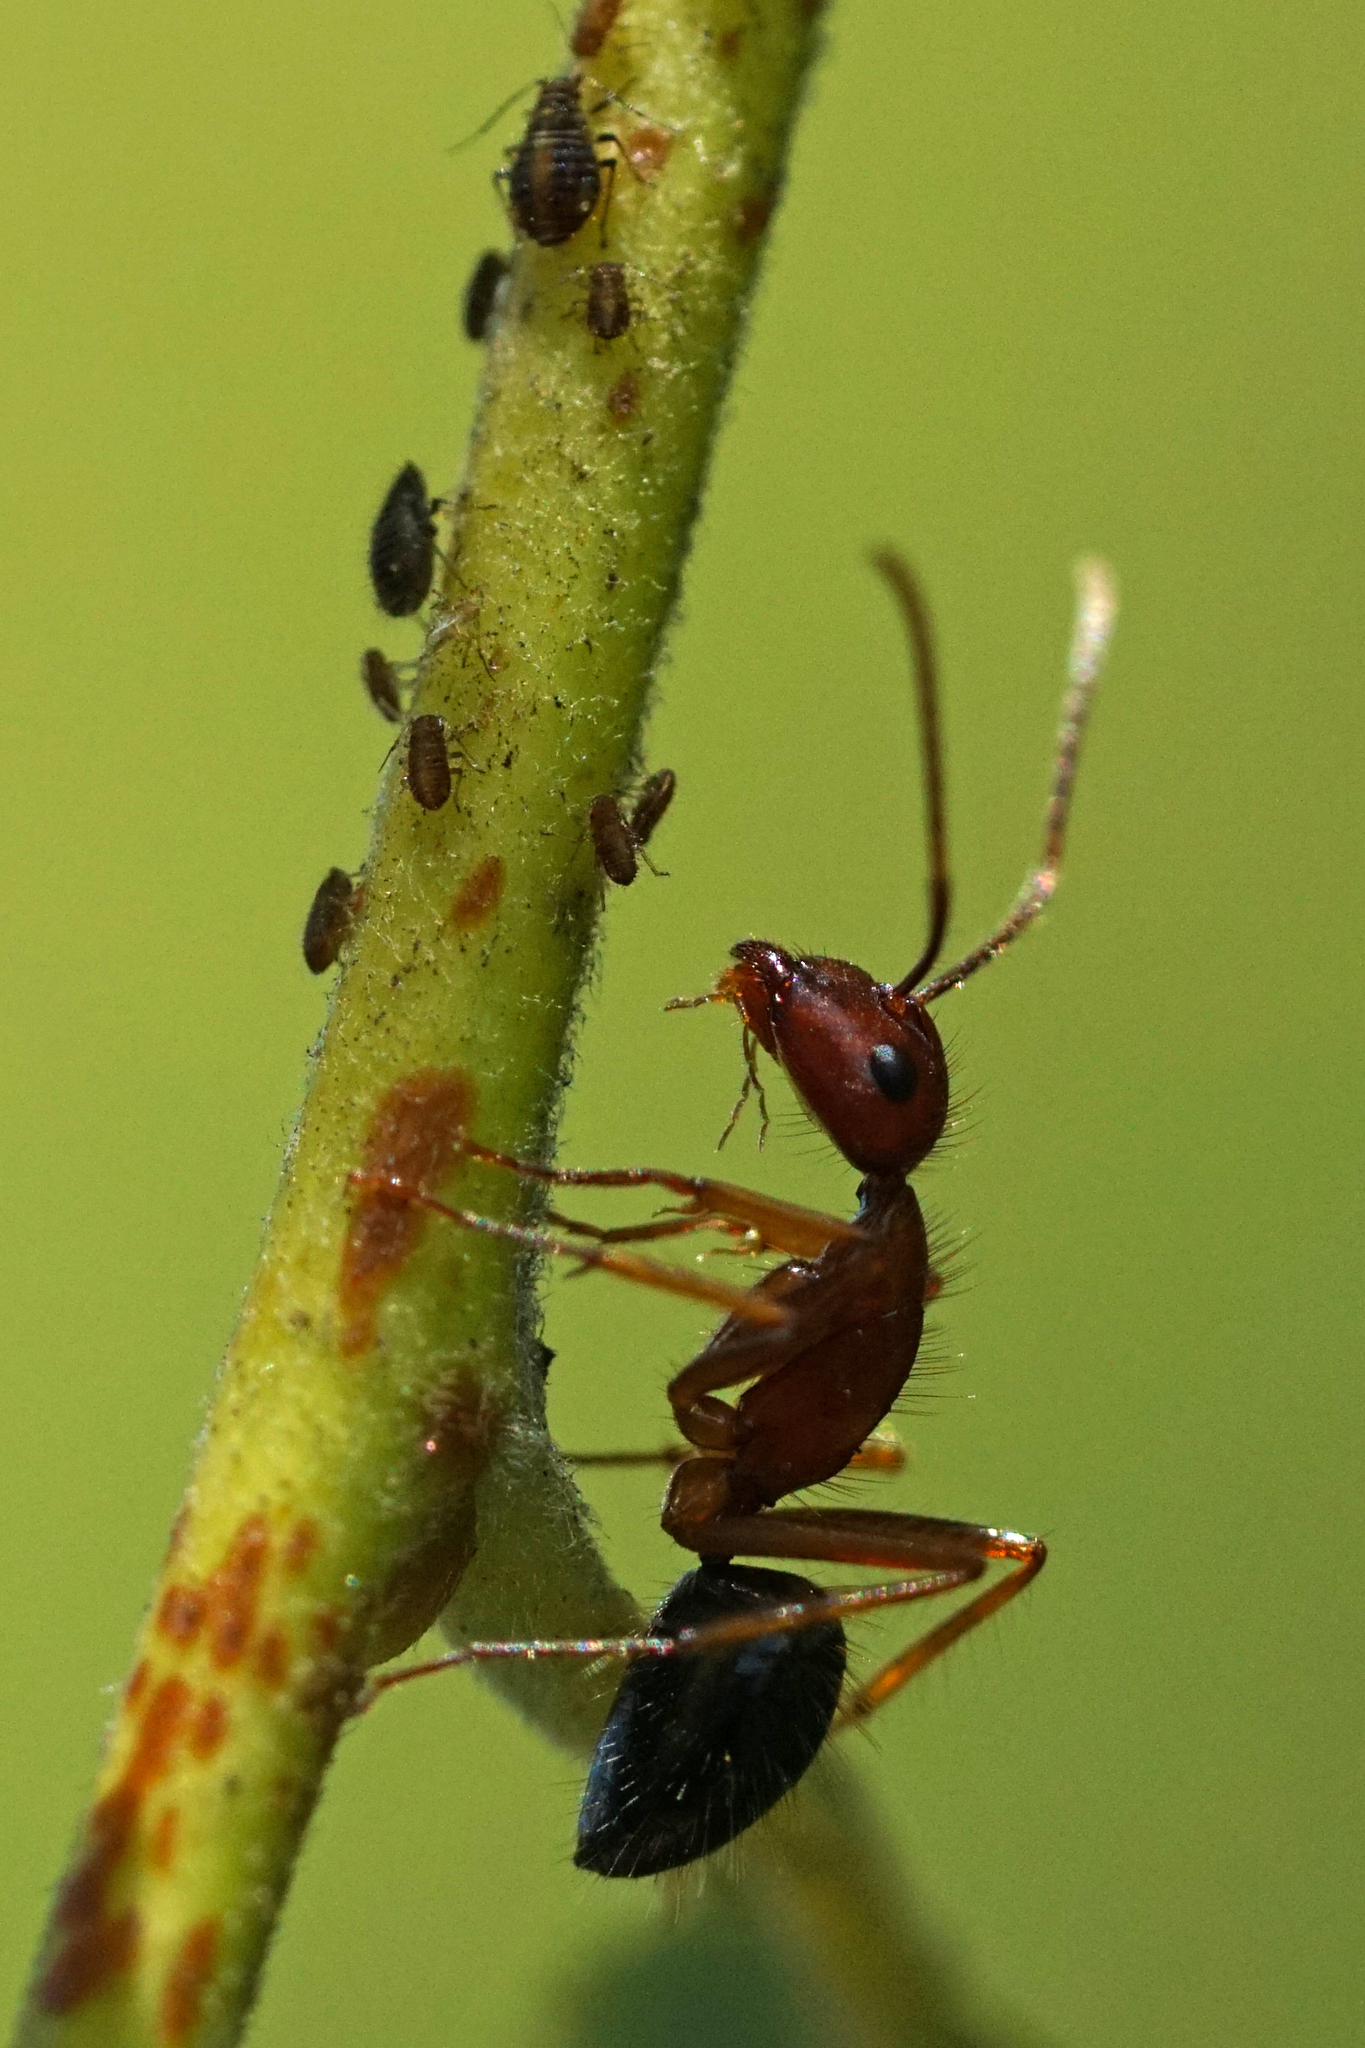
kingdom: Animalia
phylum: Arthropoda
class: Insecta
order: Hymenoptera
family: Formicidae
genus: Camponotus
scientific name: Camponotus floridanus
